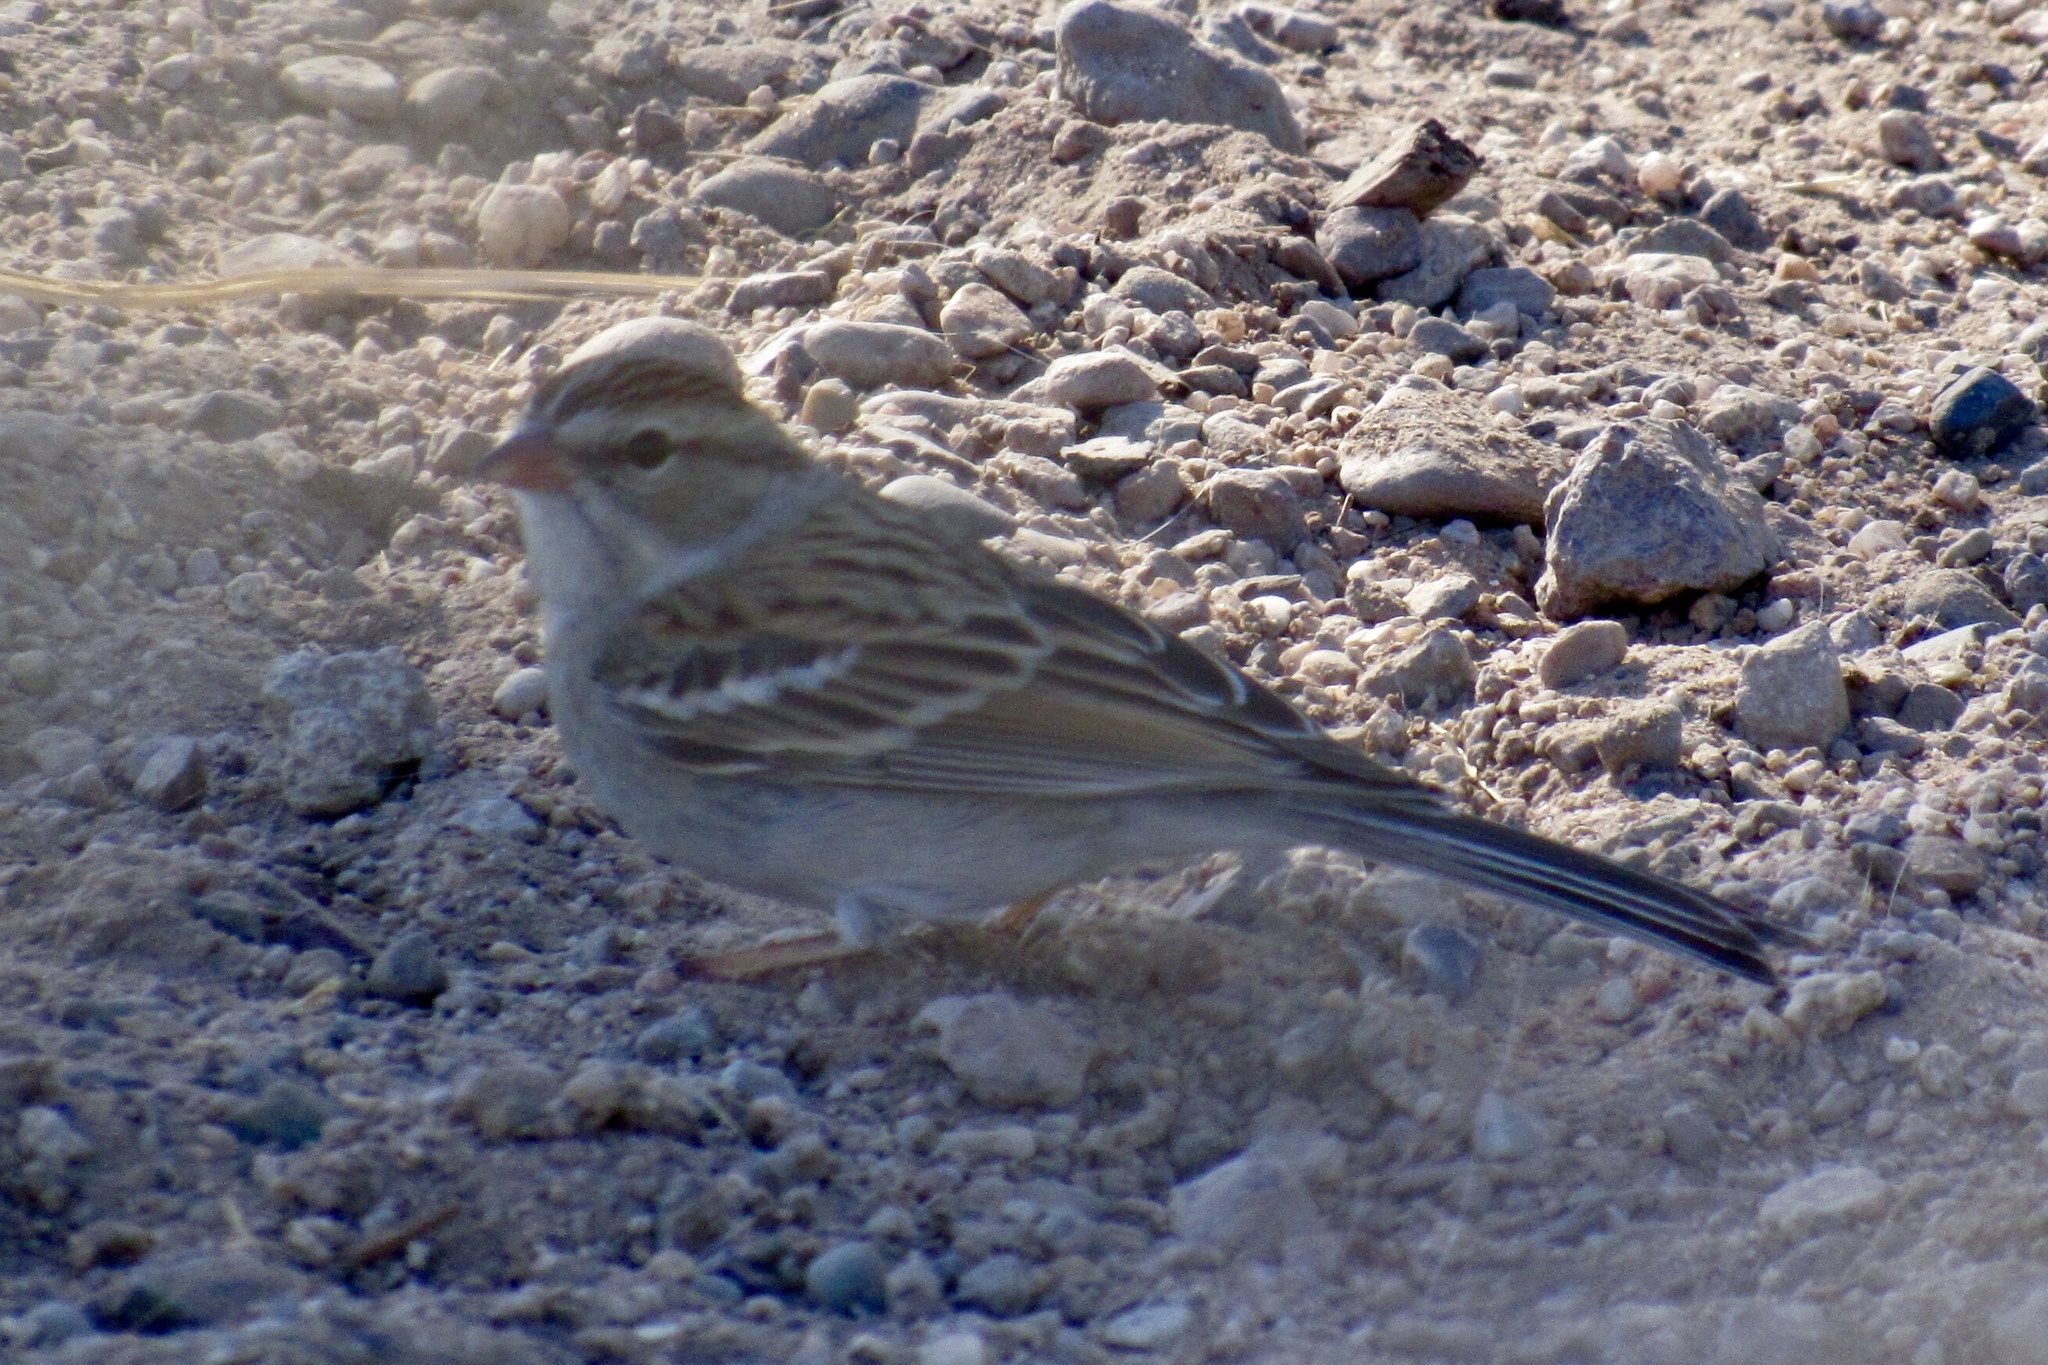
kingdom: Animalia
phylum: Chordata
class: Aves
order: Passeriformes
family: Passerellidae
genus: Spizella
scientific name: Spizella passerina
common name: Chipping sparrow
